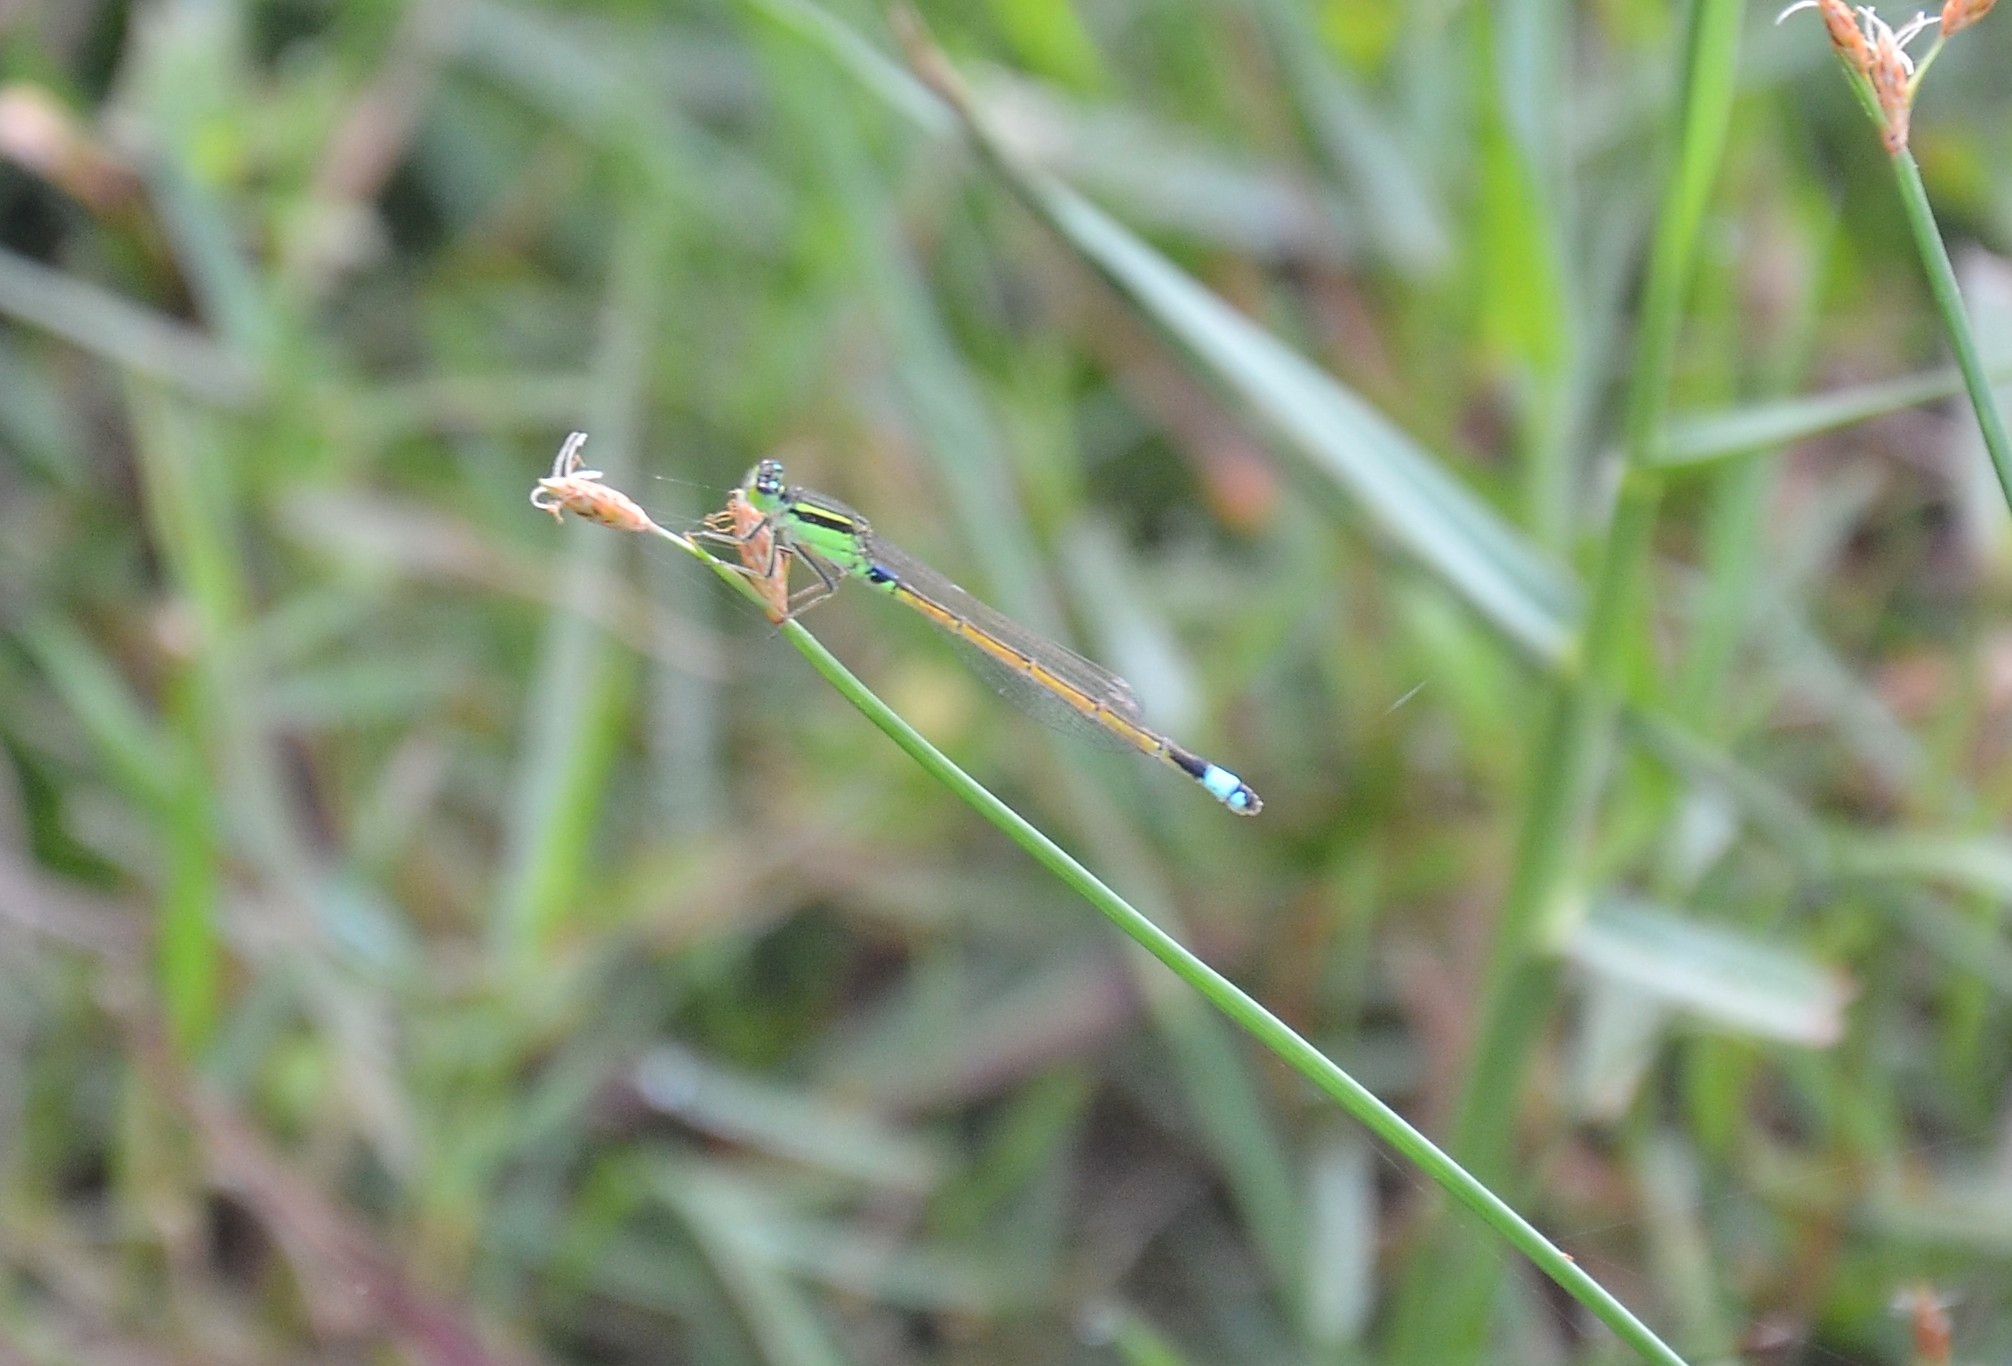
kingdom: Animalia
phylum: Arthropoda
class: Insecta
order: Odonata
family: Coenagrionidae
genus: Ischnura
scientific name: Ischnura senegalensis
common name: Tropical bluetail
